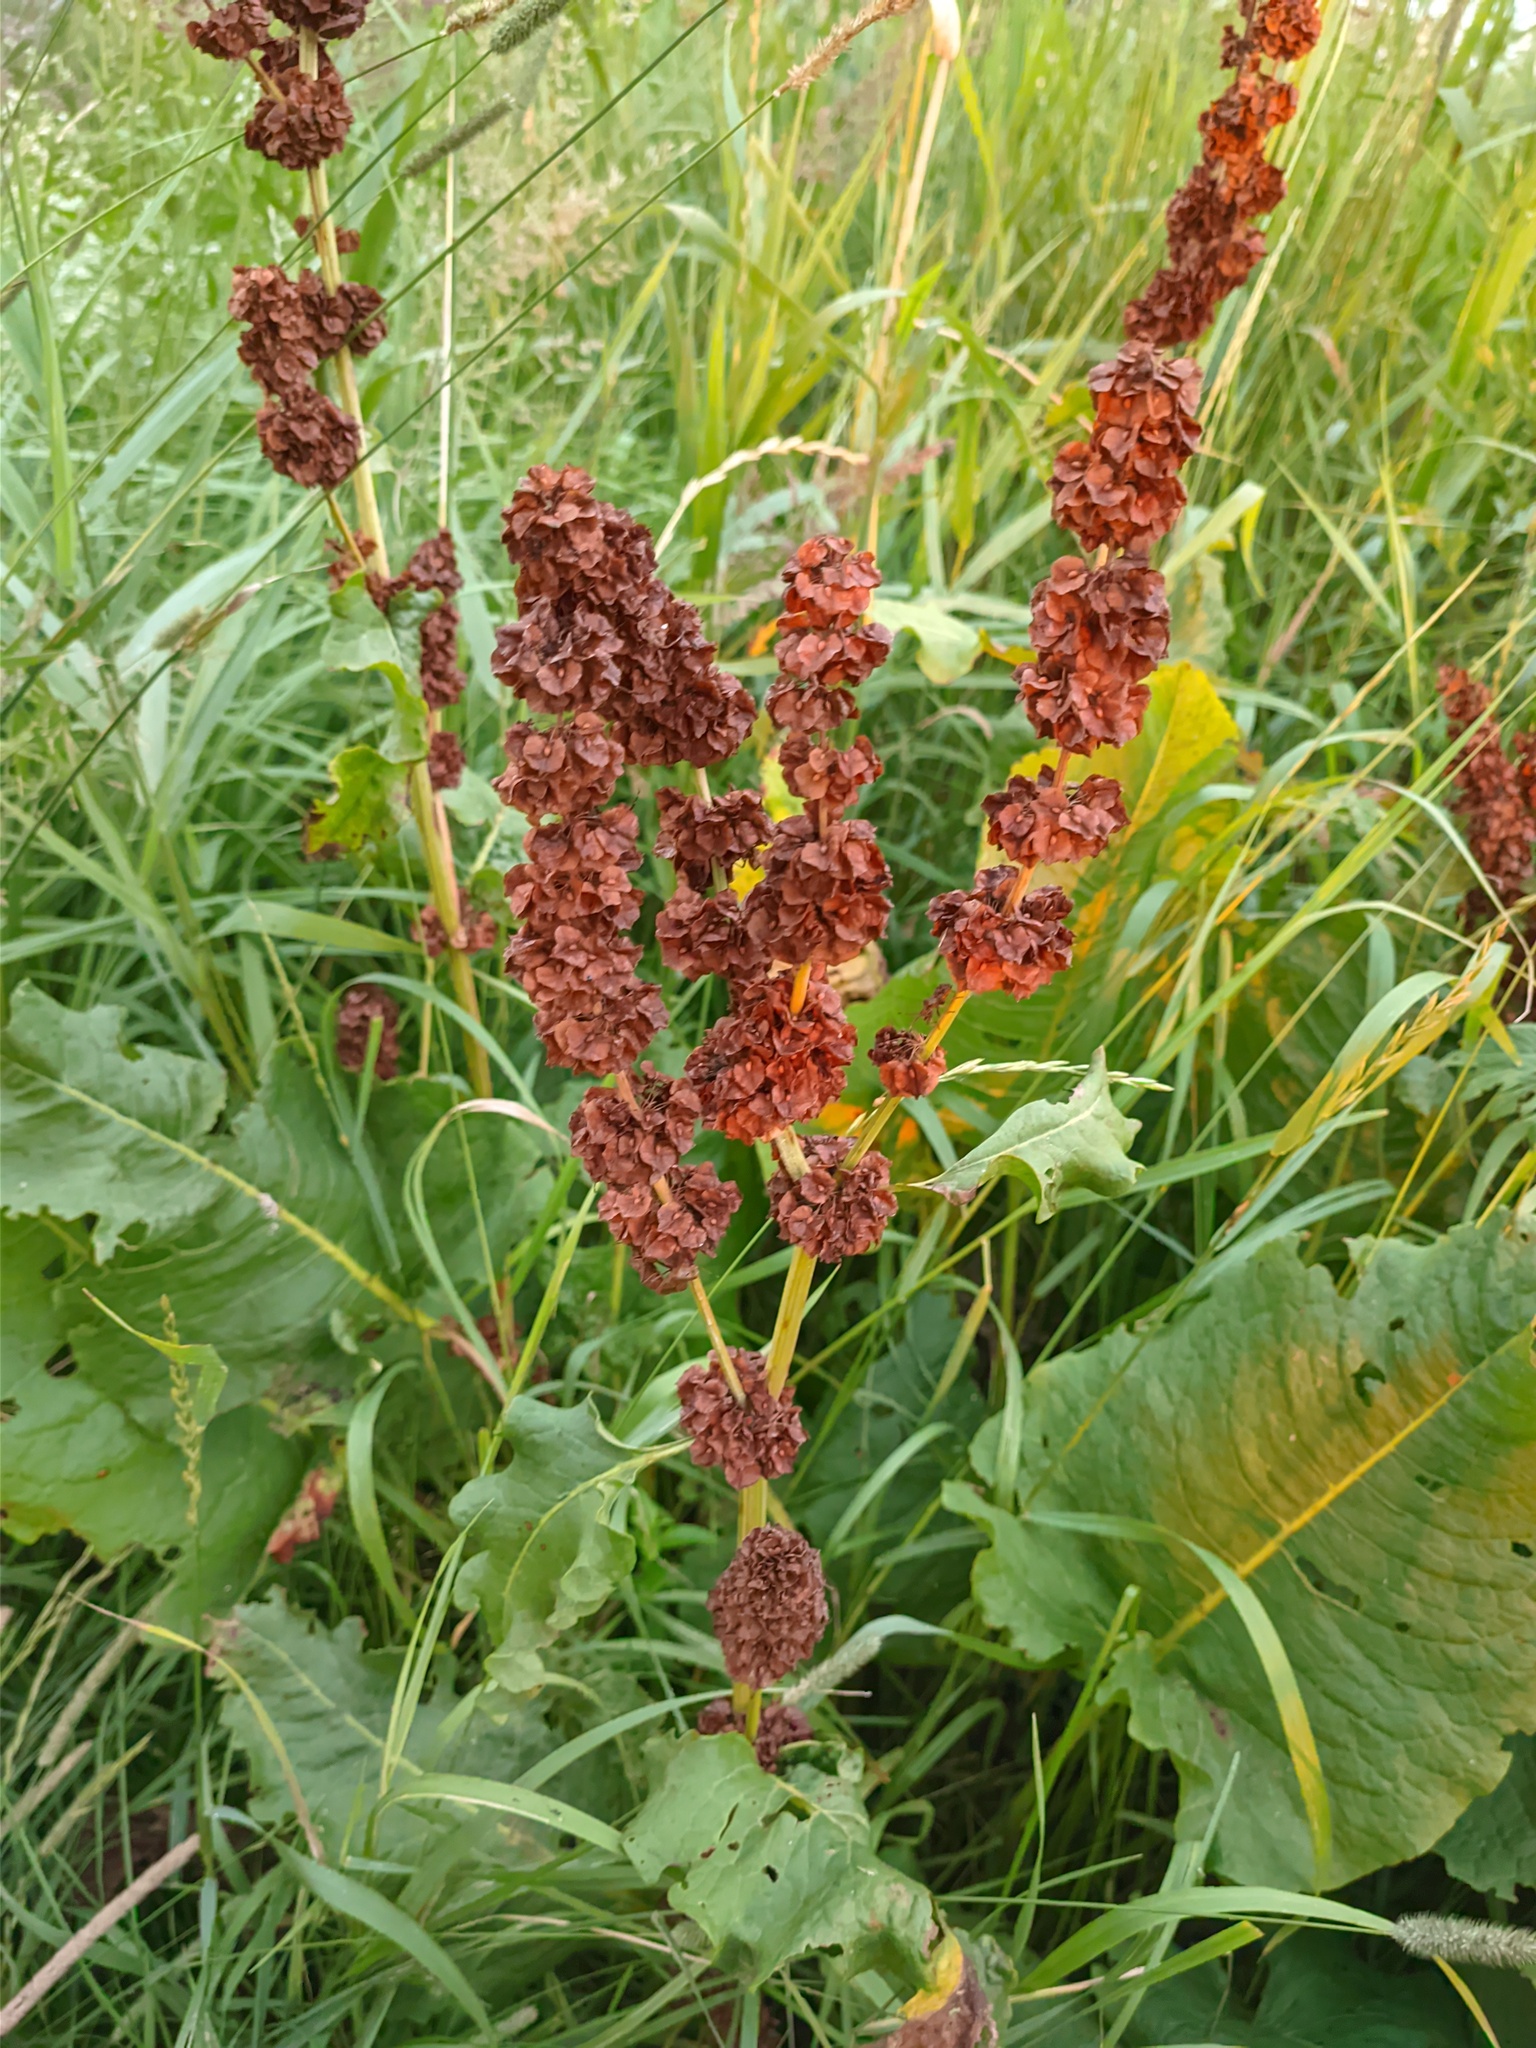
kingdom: Plantae
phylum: Tracheophyta
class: Magnoliopsida
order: Caryophyllales
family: Polygonaceae
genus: Rumex
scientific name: Rumex confertus
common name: Russian dock
